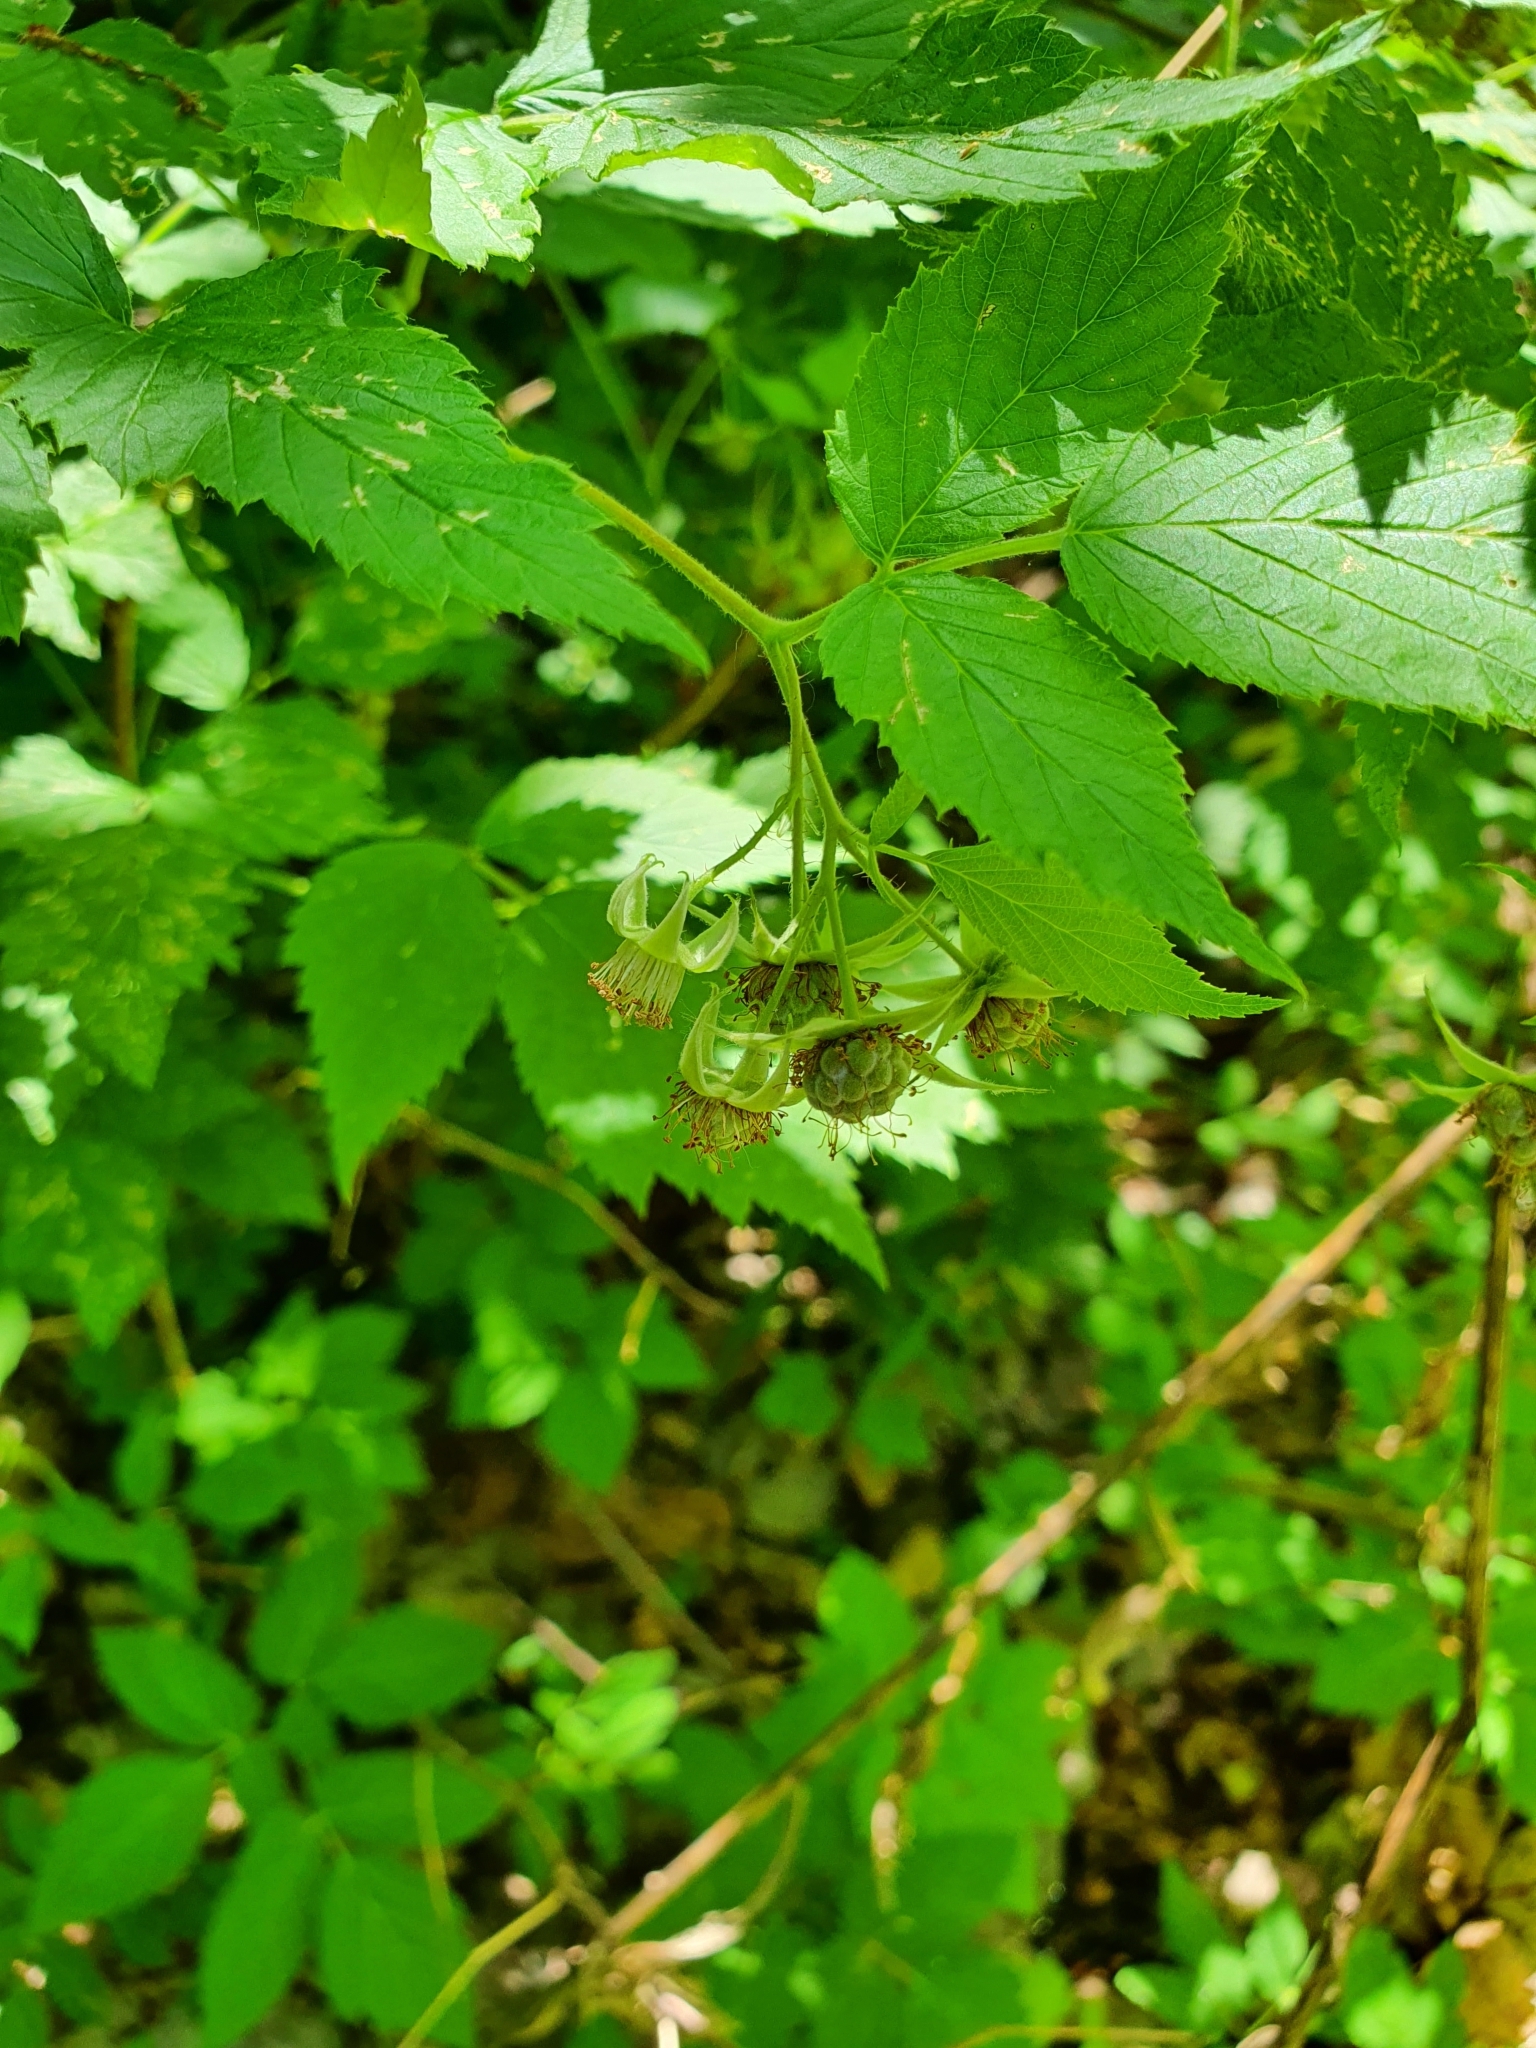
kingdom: Plantae
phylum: Tracheophyta
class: Magnoliopsida
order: Rosales
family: Rosaceae
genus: Rubus
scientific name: Rubus idaeus
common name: Raspberry
